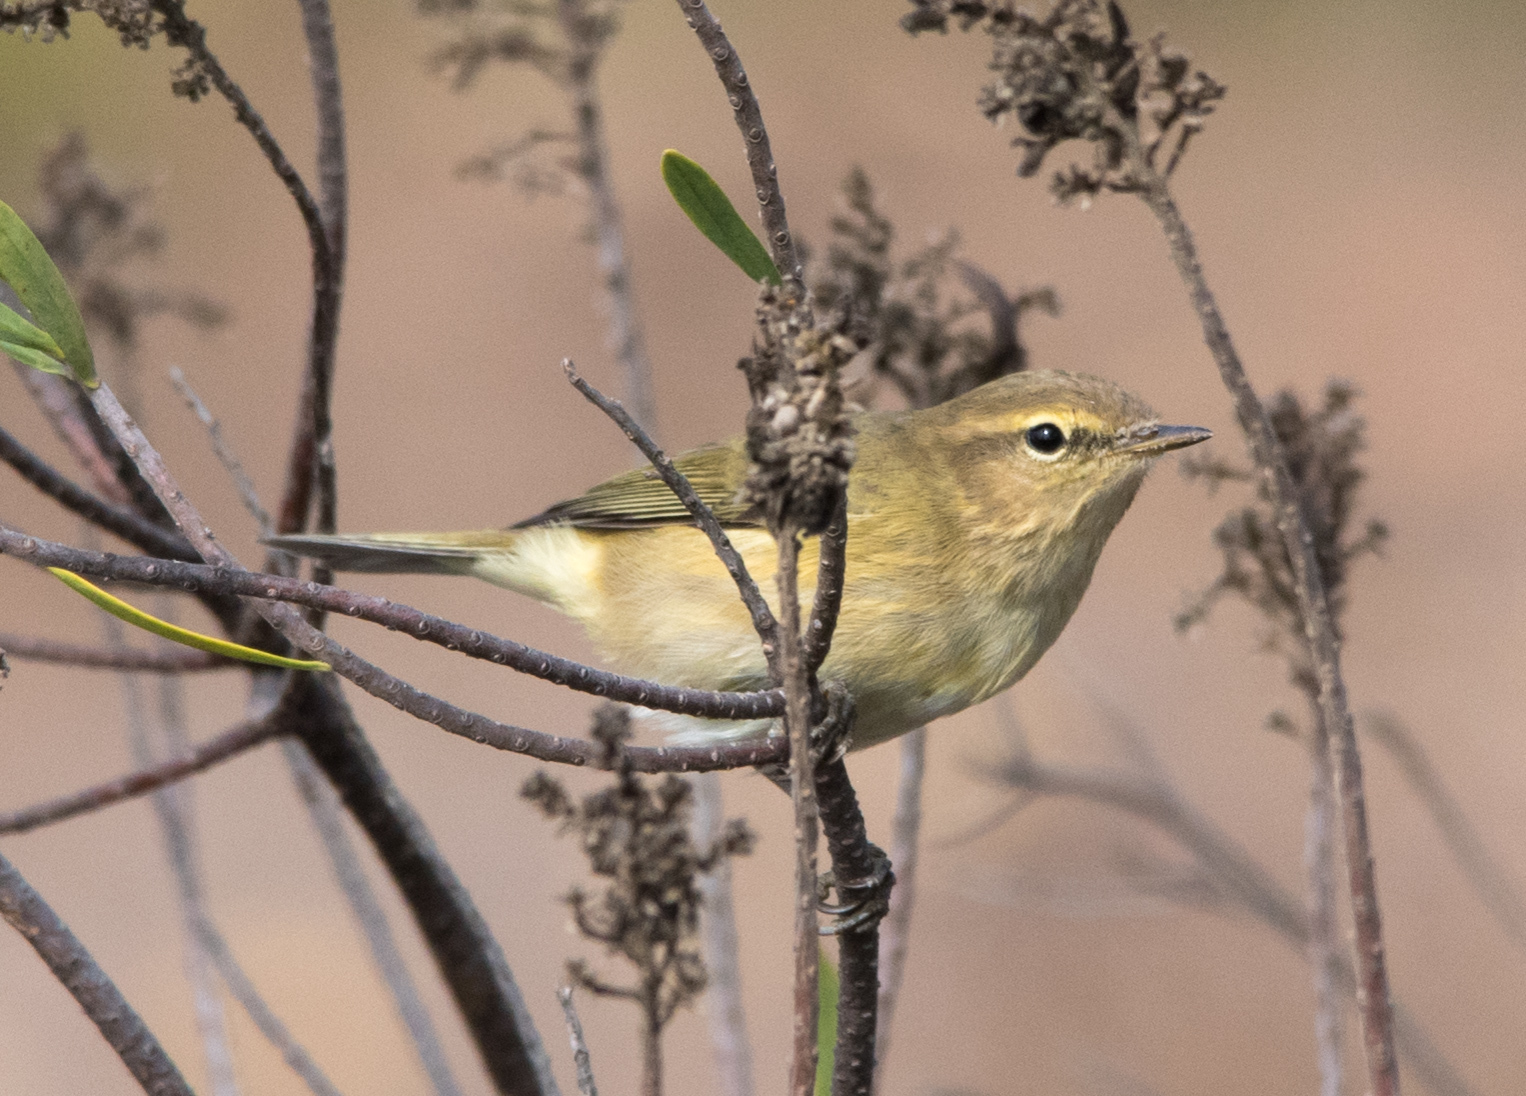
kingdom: Animalia
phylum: Chordata
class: Aves
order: Passeriformes
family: Phylloscopidae
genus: Phylloscopus
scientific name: Phylloscopus collybita
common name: Common chiffchaff
